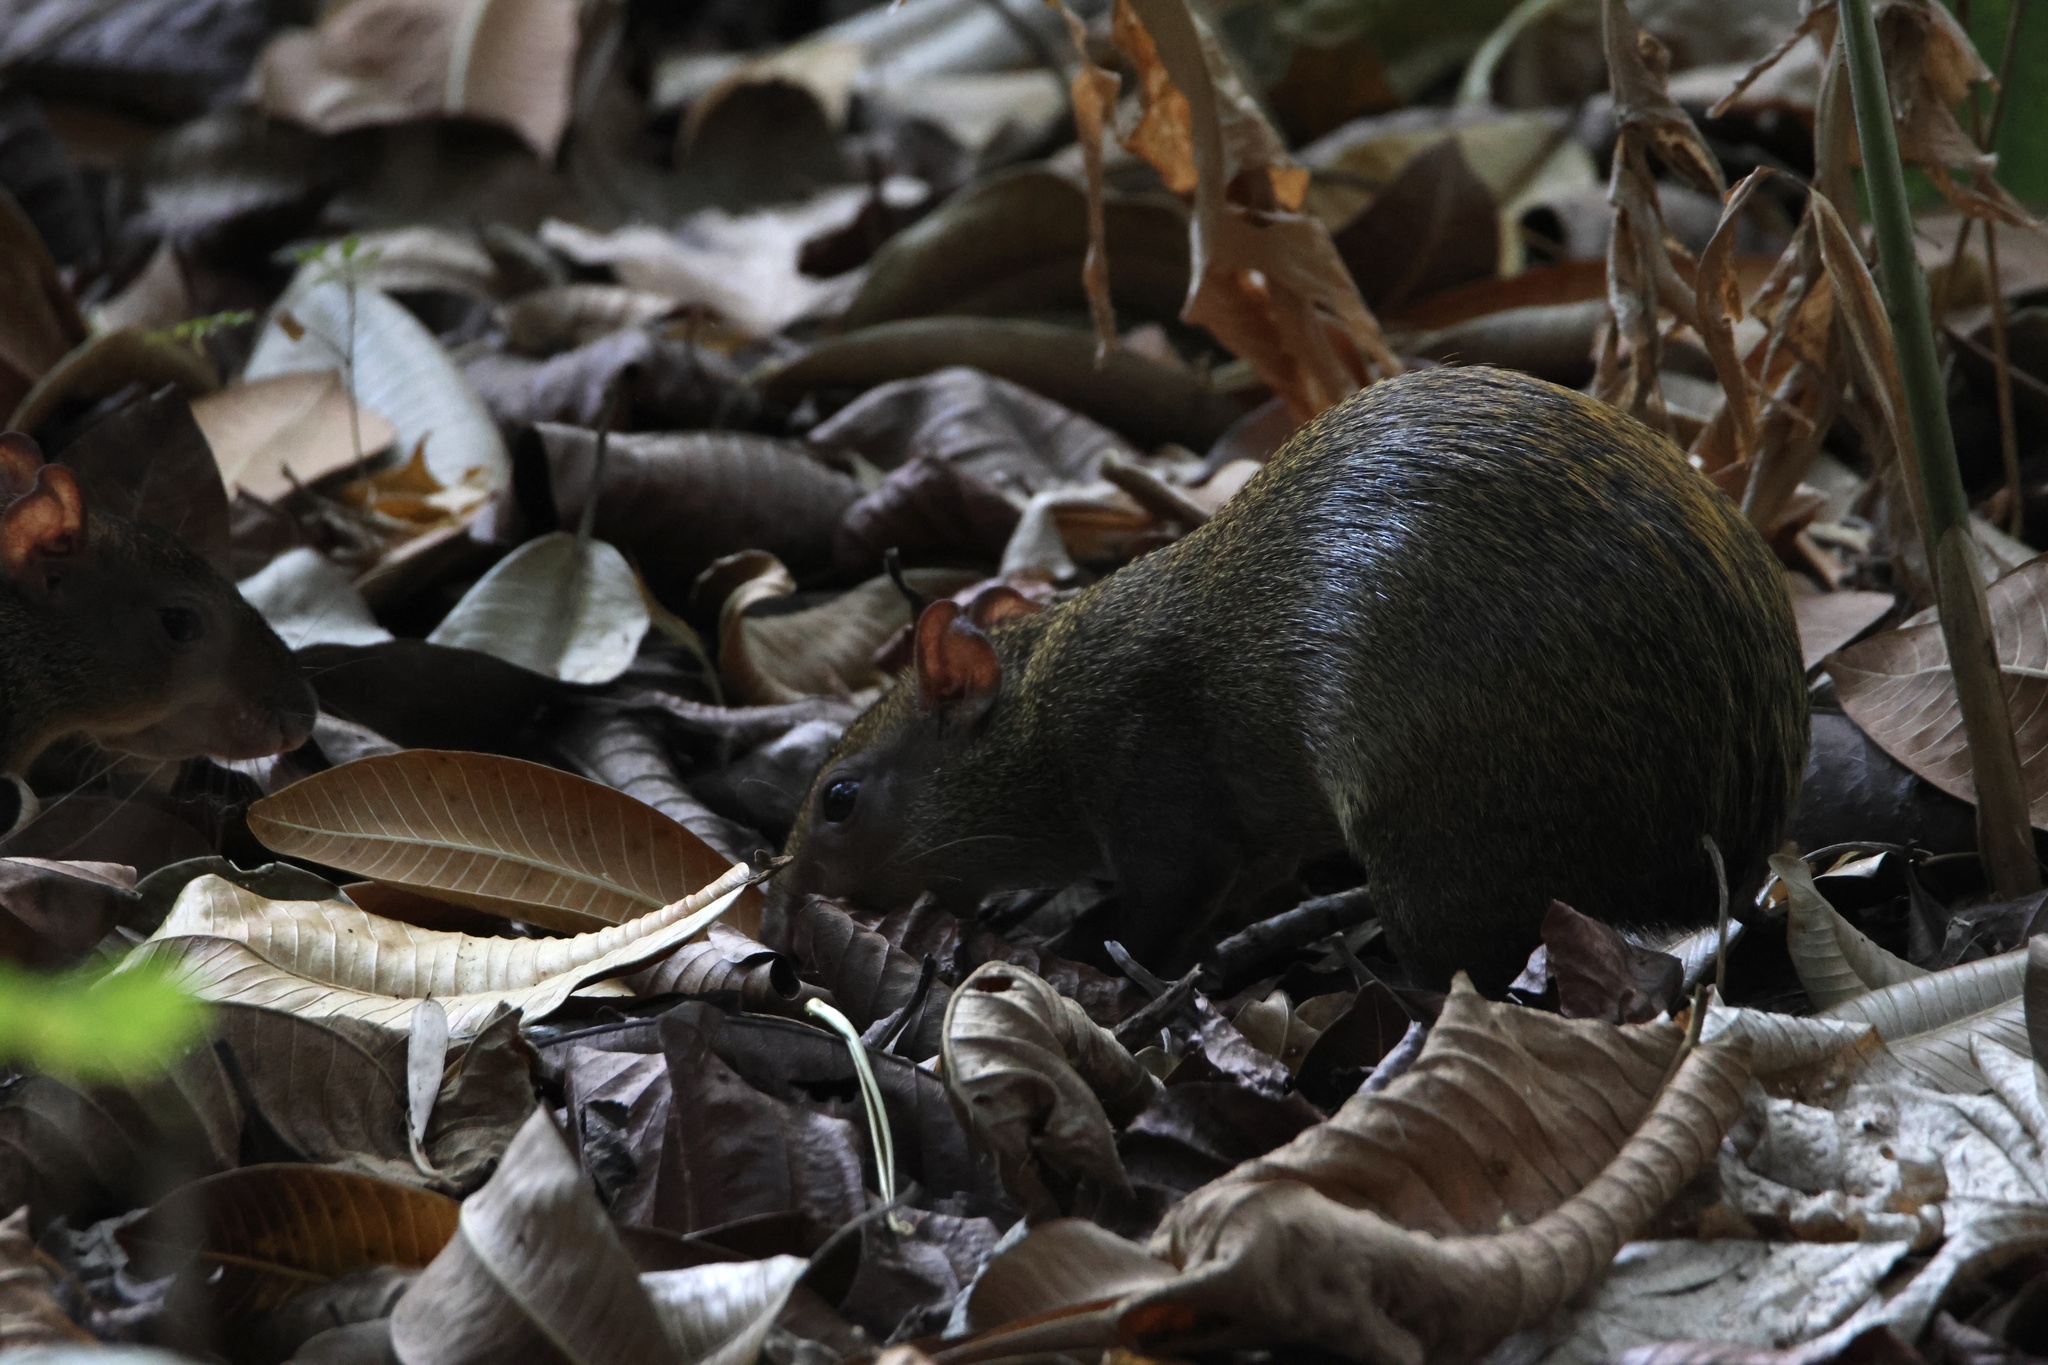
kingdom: Animalia
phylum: Chordata
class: Mammalia
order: Rodentia
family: Dasyproctidae
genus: Dasyprocta
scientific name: Dasyprocta punctata
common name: Central american agouti
